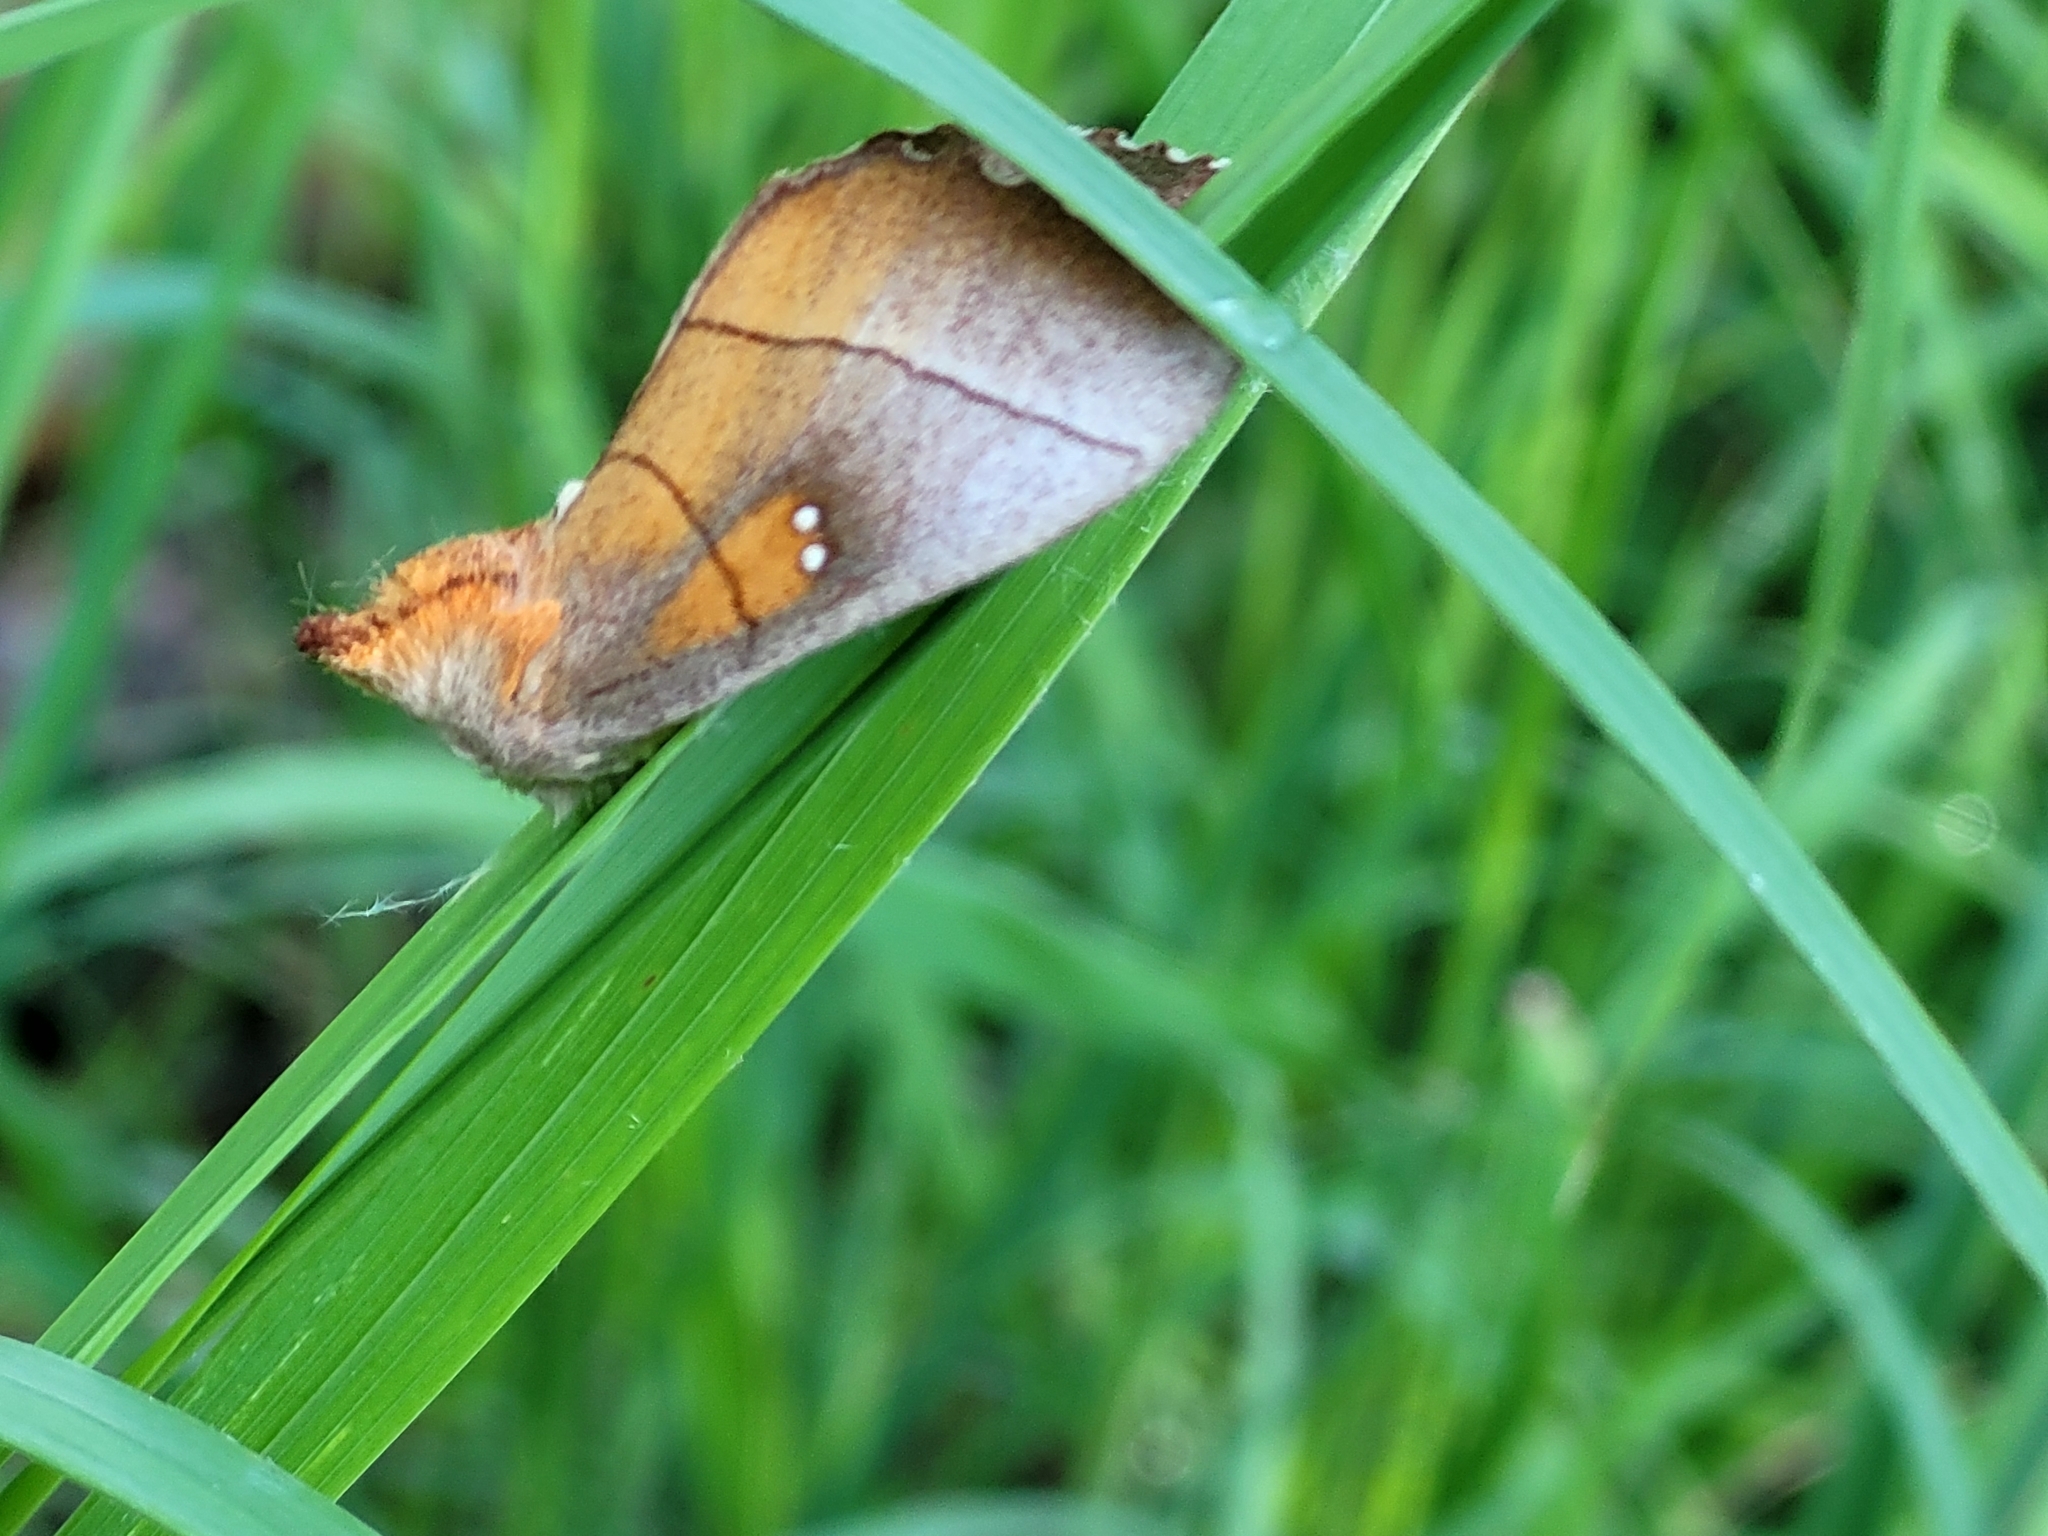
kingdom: Animalia
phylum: Arthropoda
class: Insecta
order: Lepidoptera
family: Notodontidae
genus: Nadata
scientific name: Nadata gibbosa
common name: White-dotted prominent
